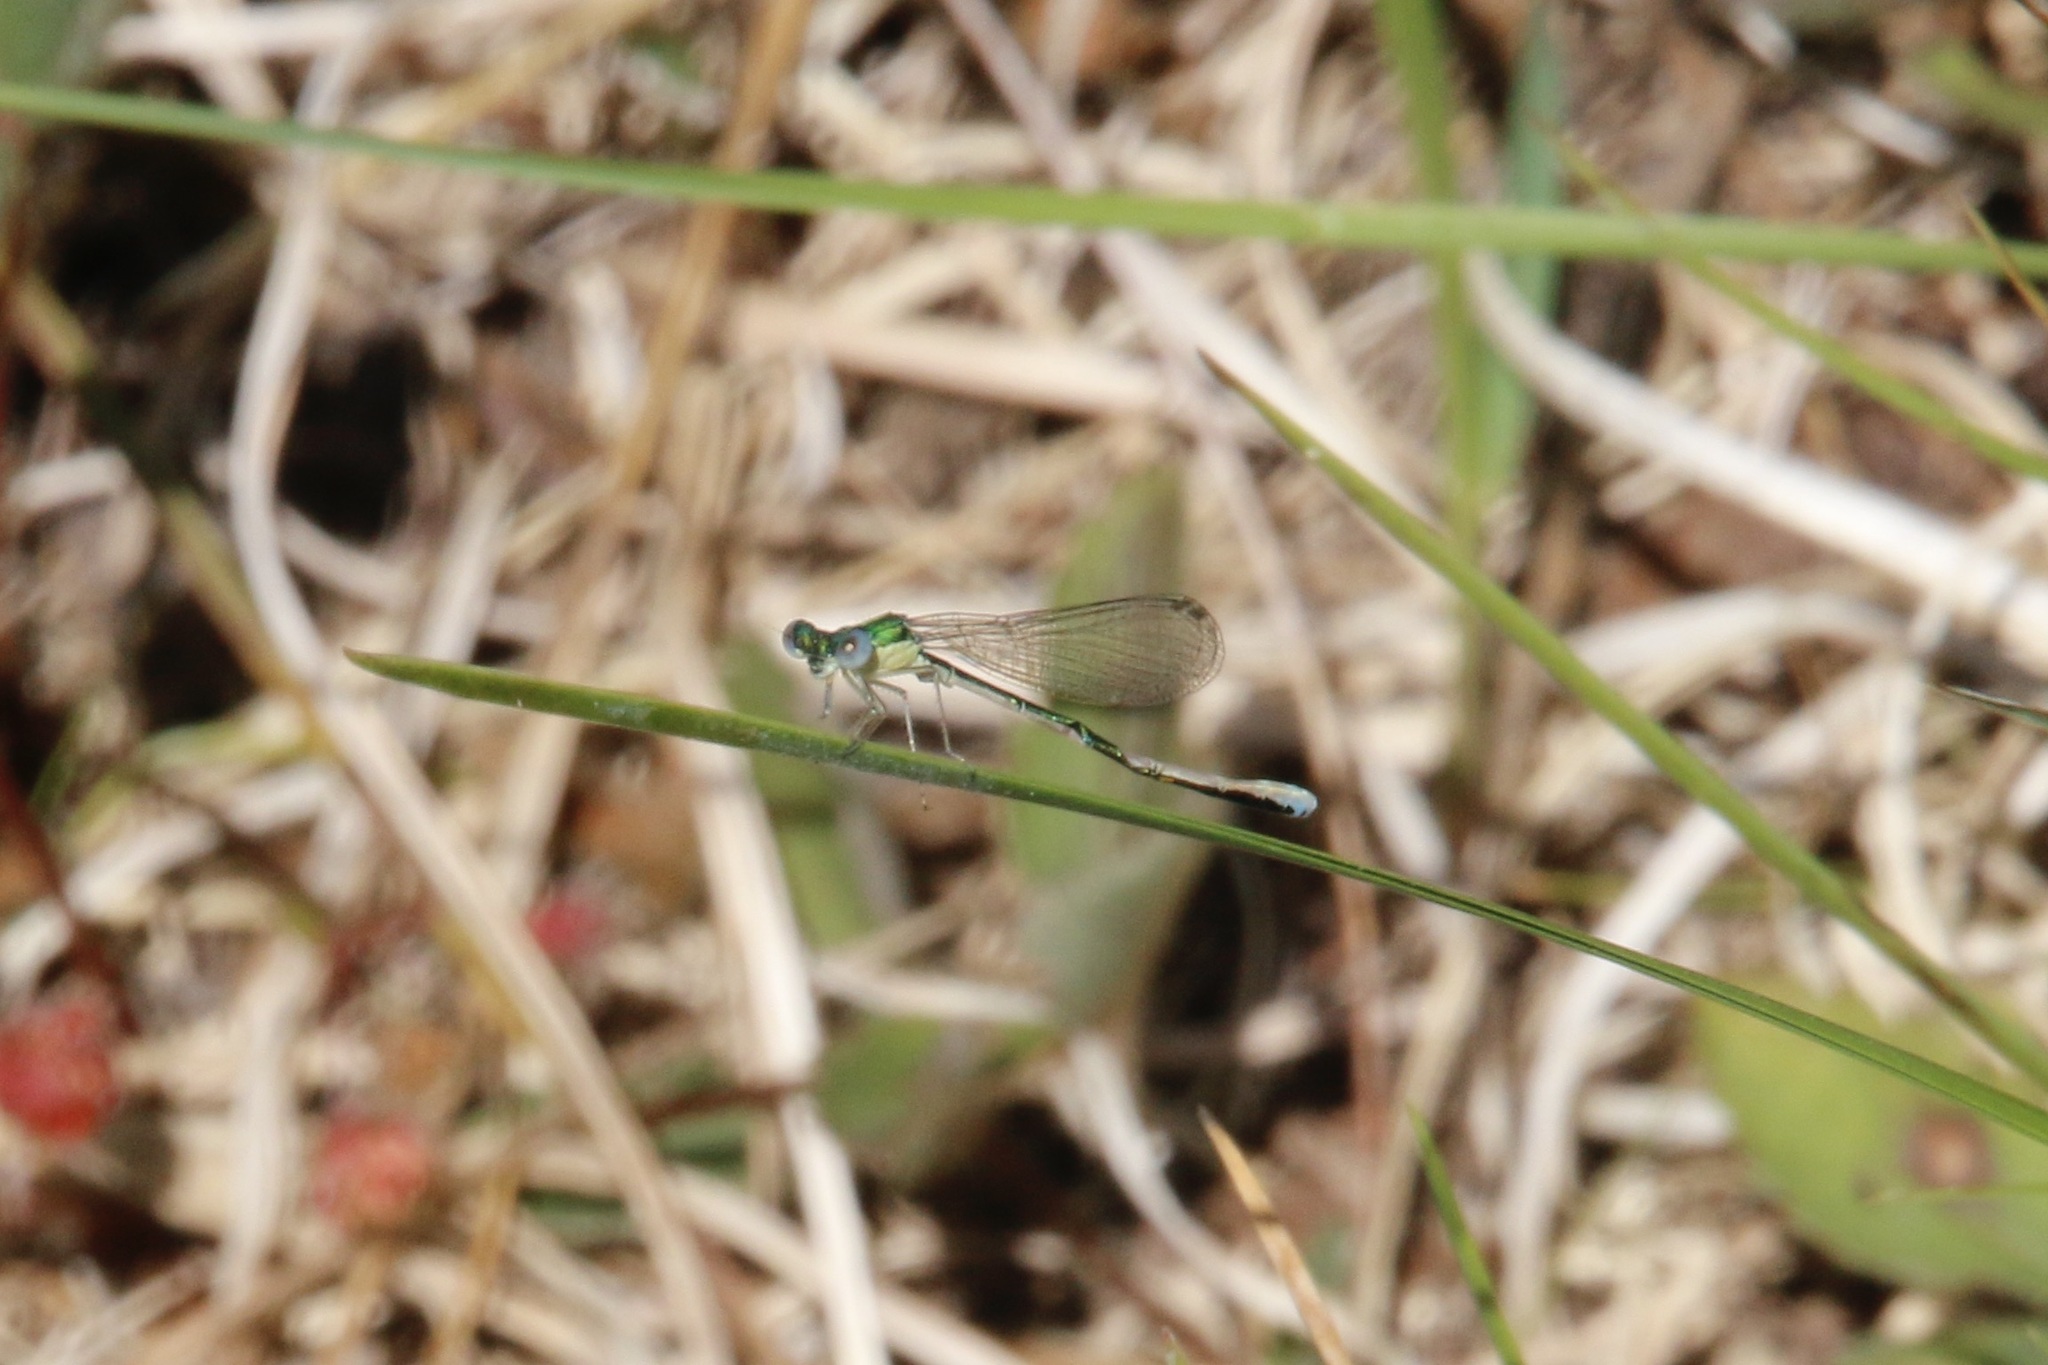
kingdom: Animalia
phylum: Arthropoda
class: Insecta
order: Odonata
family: Coenagrionidae
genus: Nehalennia
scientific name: Nehalennia irene
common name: Sedge sprite
